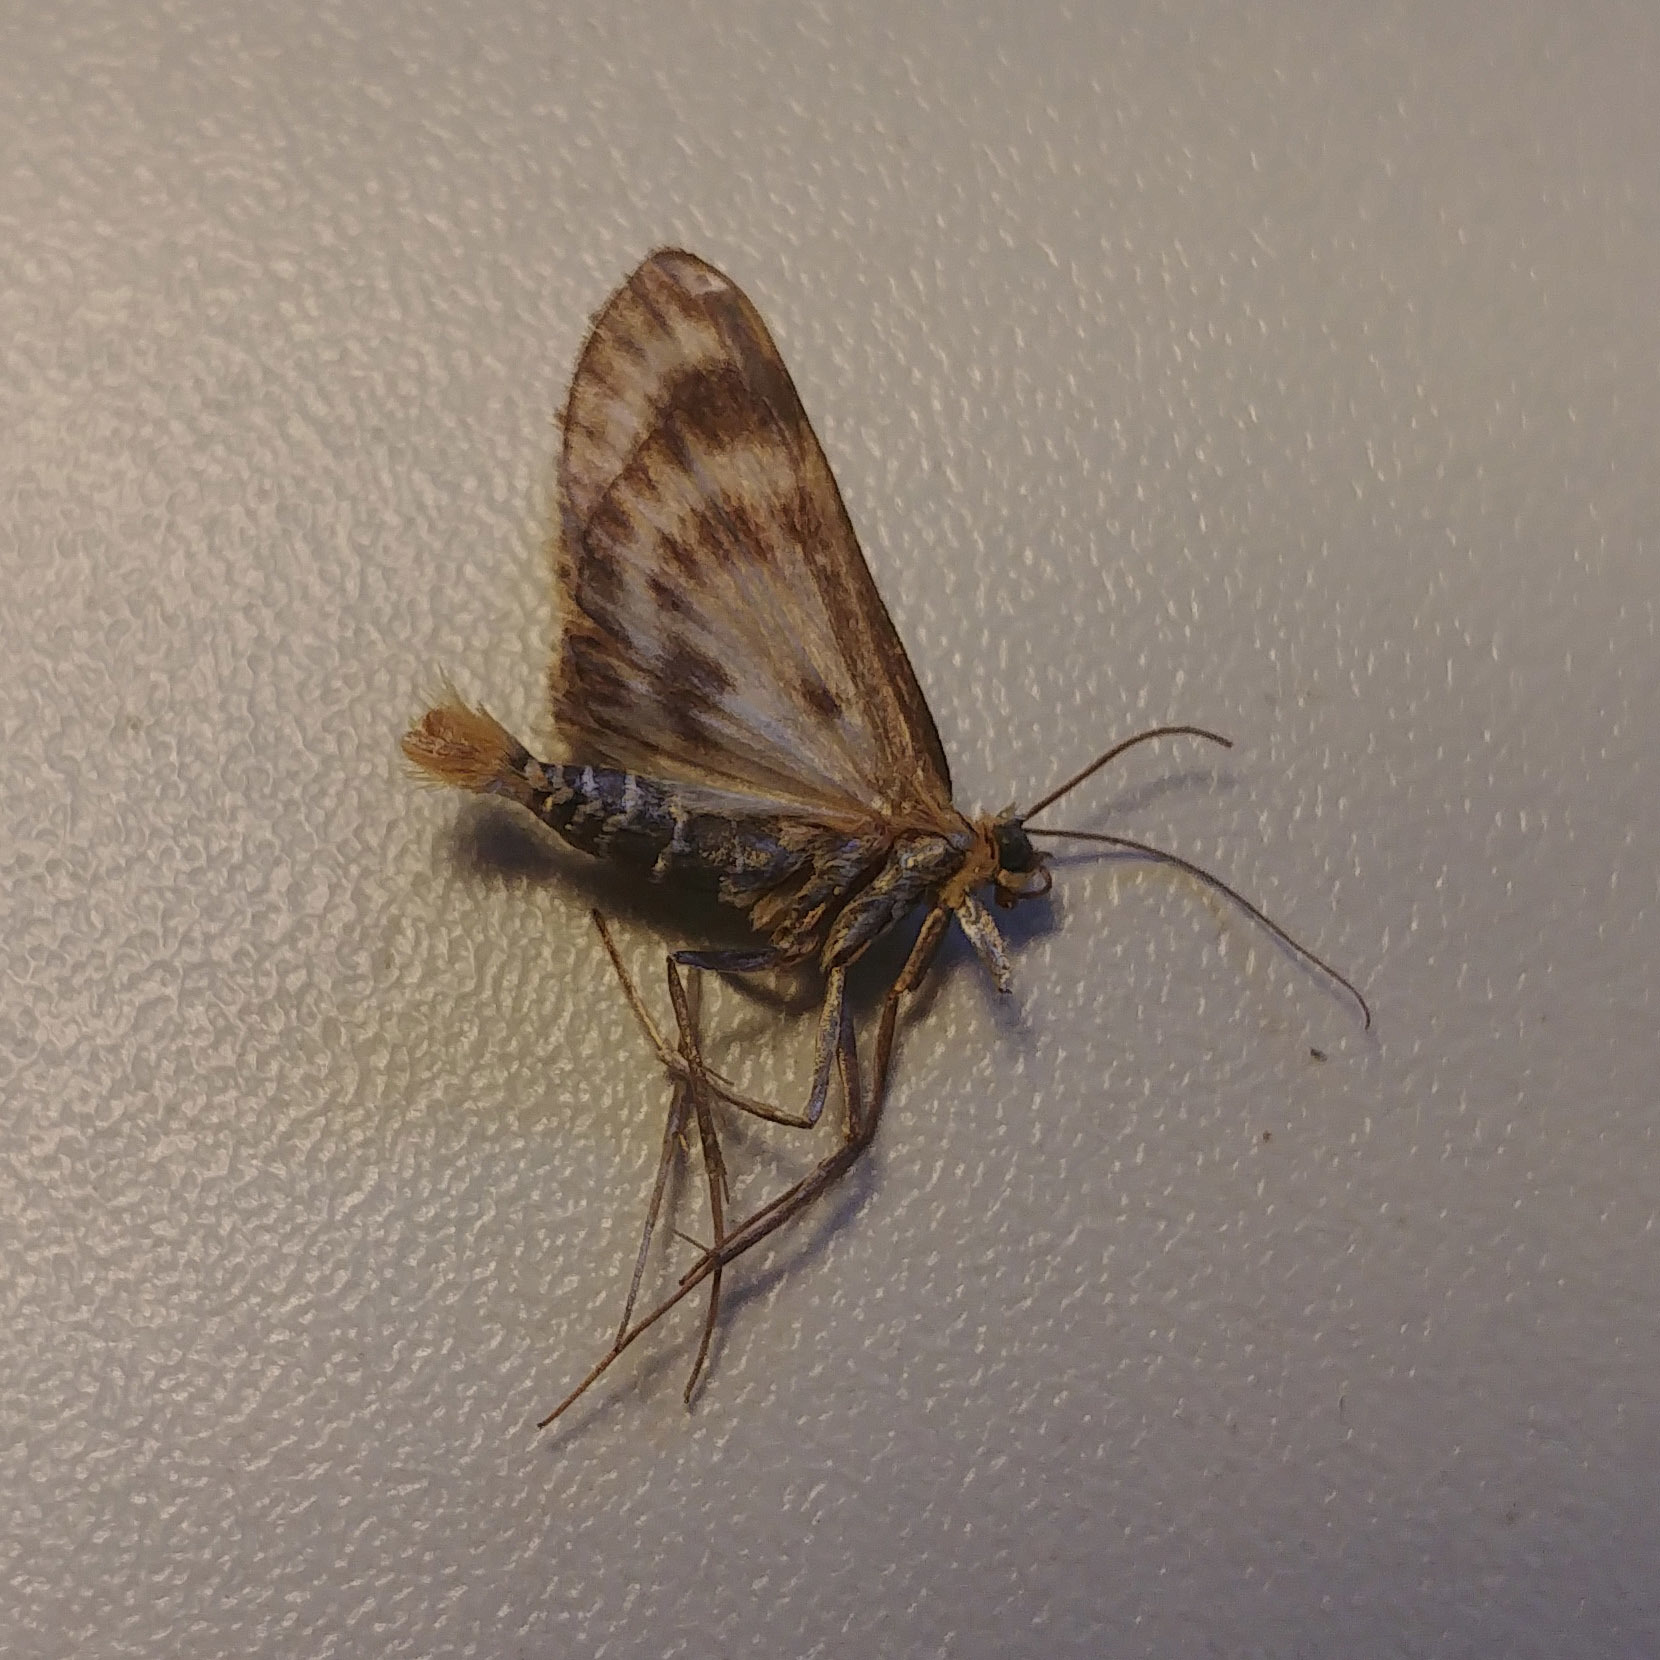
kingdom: Animalia
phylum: Arthropoda
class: Insecta
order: Lepidoptera
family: Crambidae
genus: Anania
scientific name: Anania hortulata
